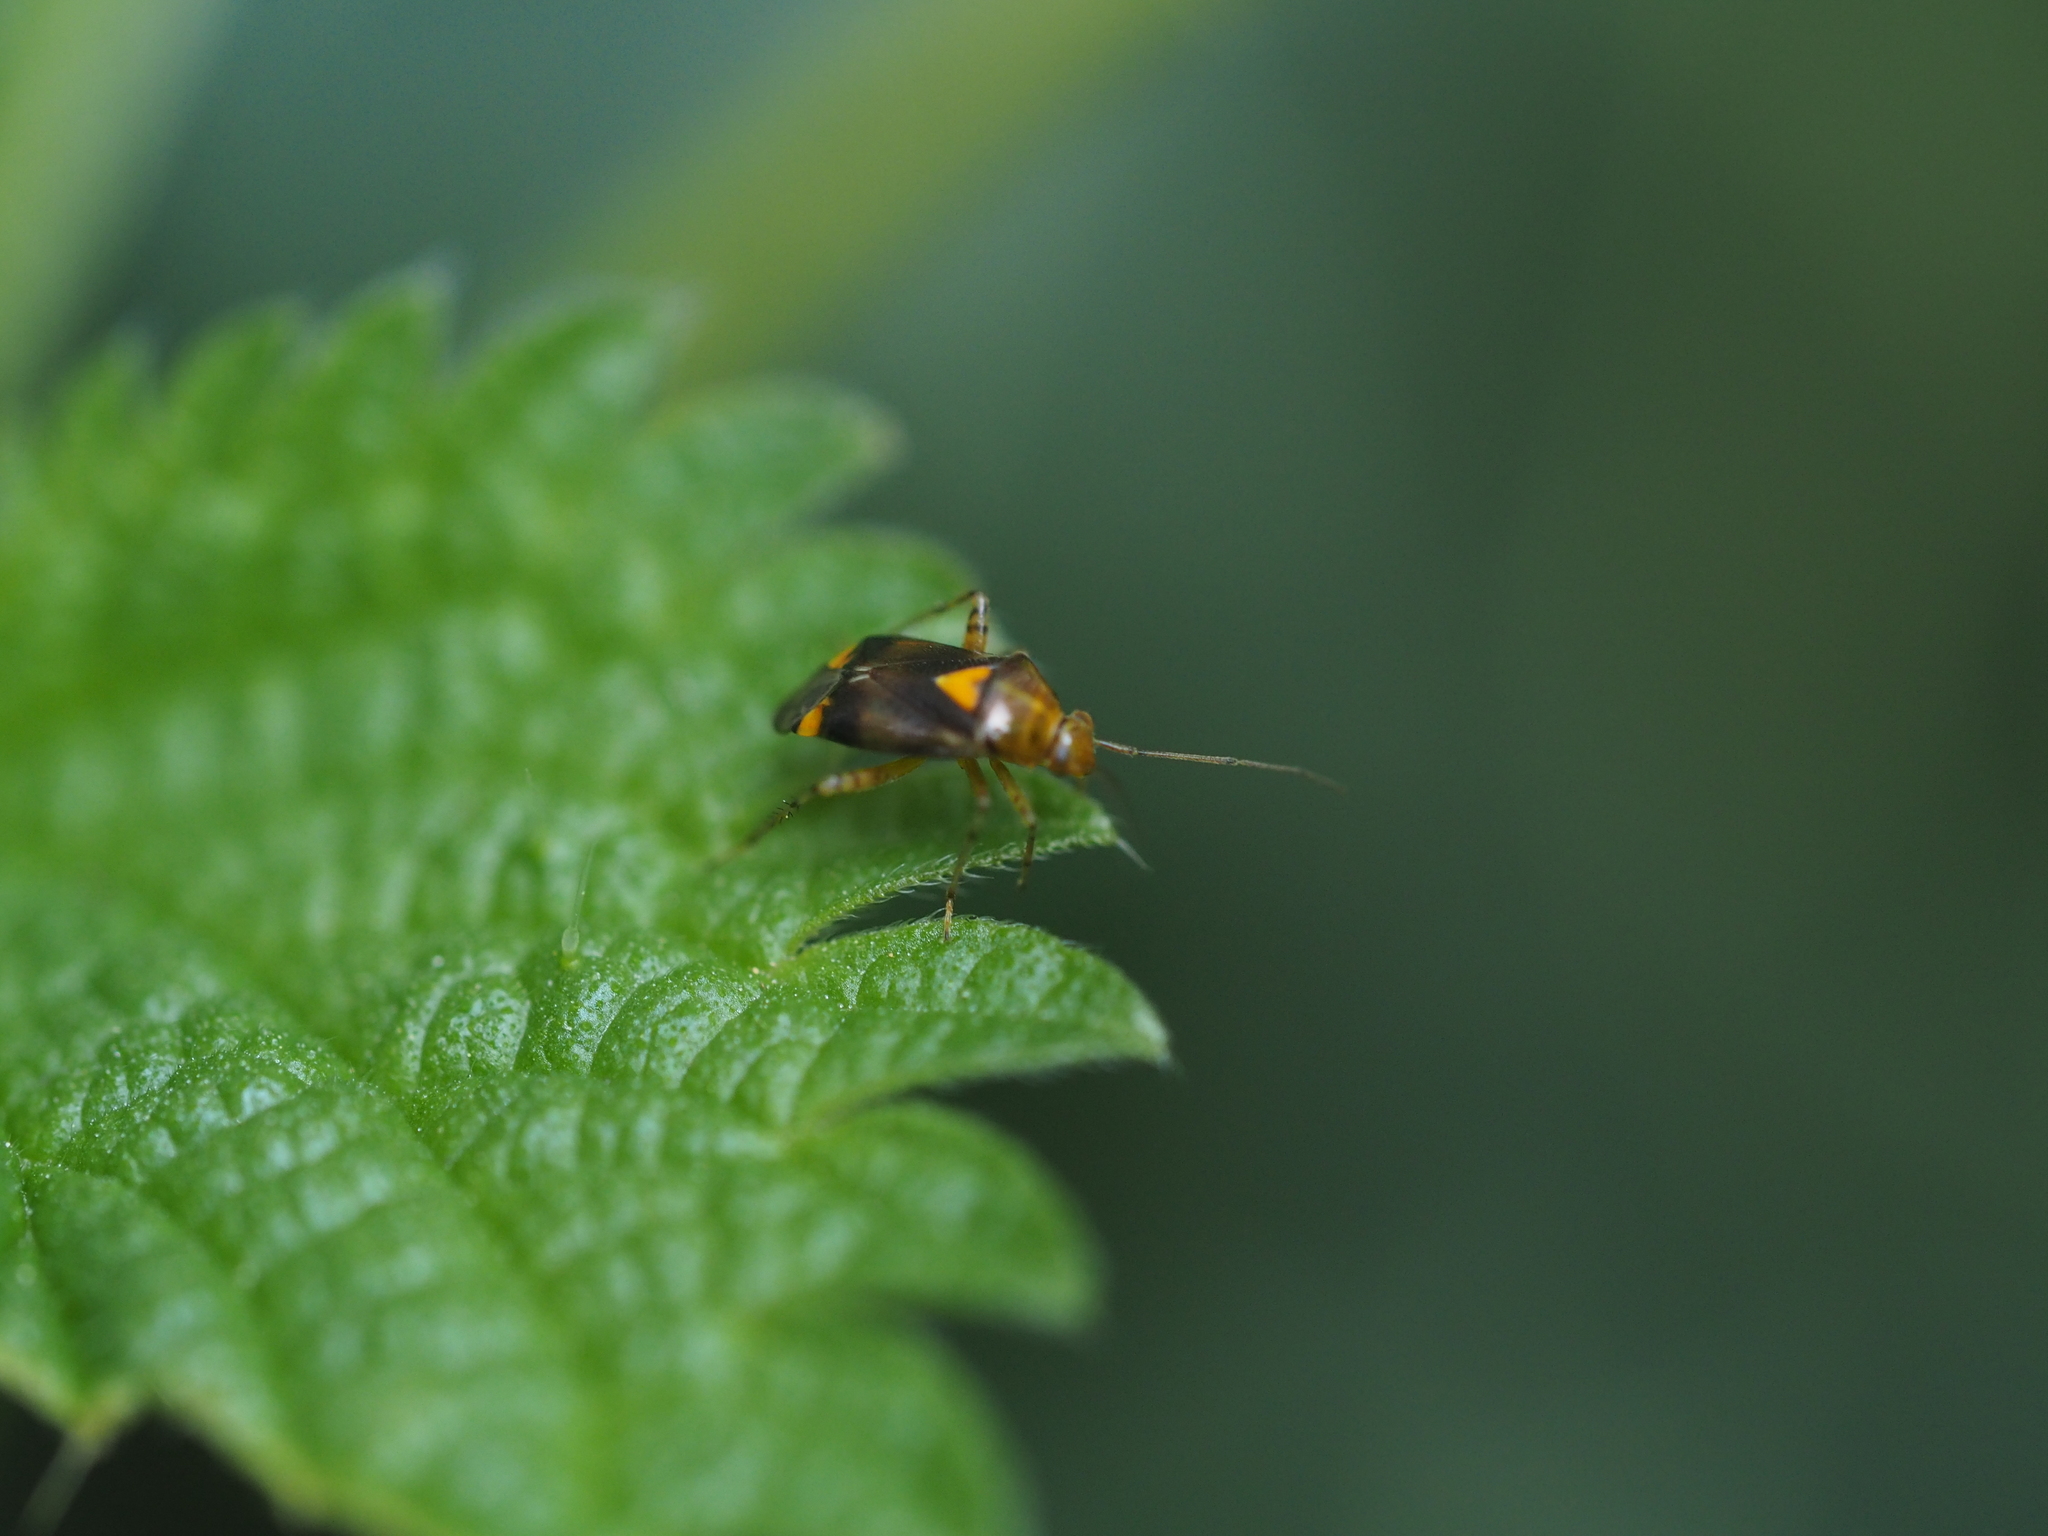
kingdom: Animalia
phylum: Arthropoda
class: Insecta
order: Hemiptera
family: Miridae
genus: Liocoris
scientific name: Liocoris tripustulatus
